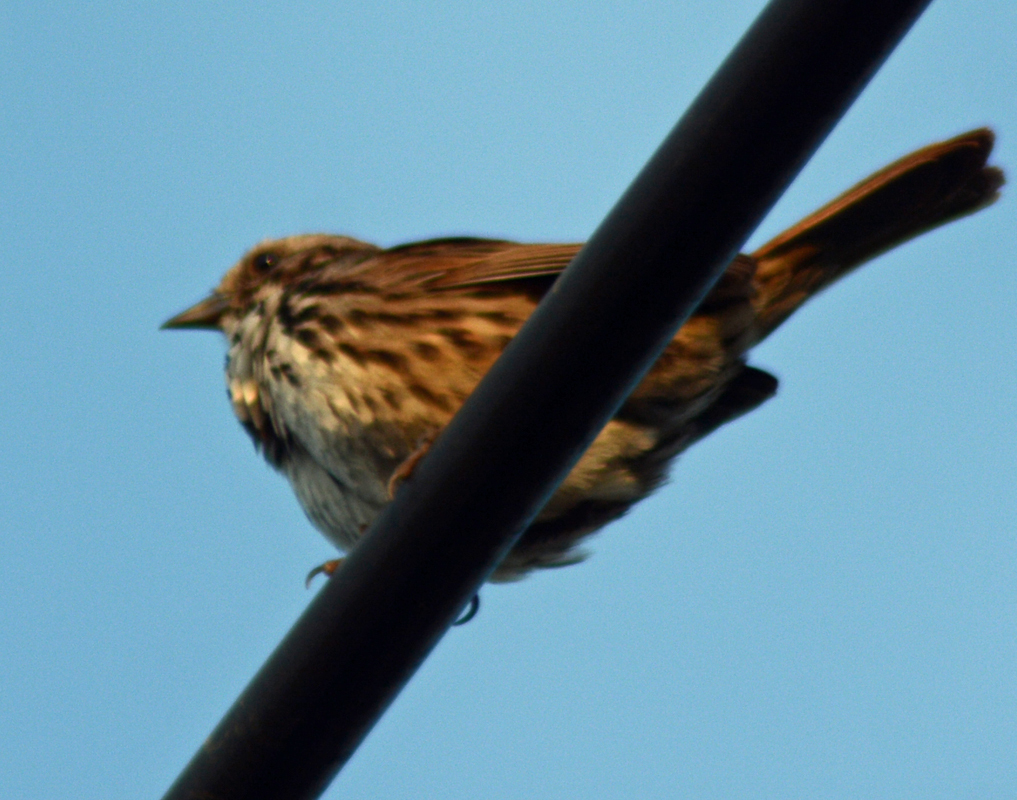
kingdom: Animalia
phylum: Chordata
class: Aves
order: Passeriformes
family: Passerellidae
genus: Melospiza
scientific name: Melospiza melodia
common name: Song sparrow
